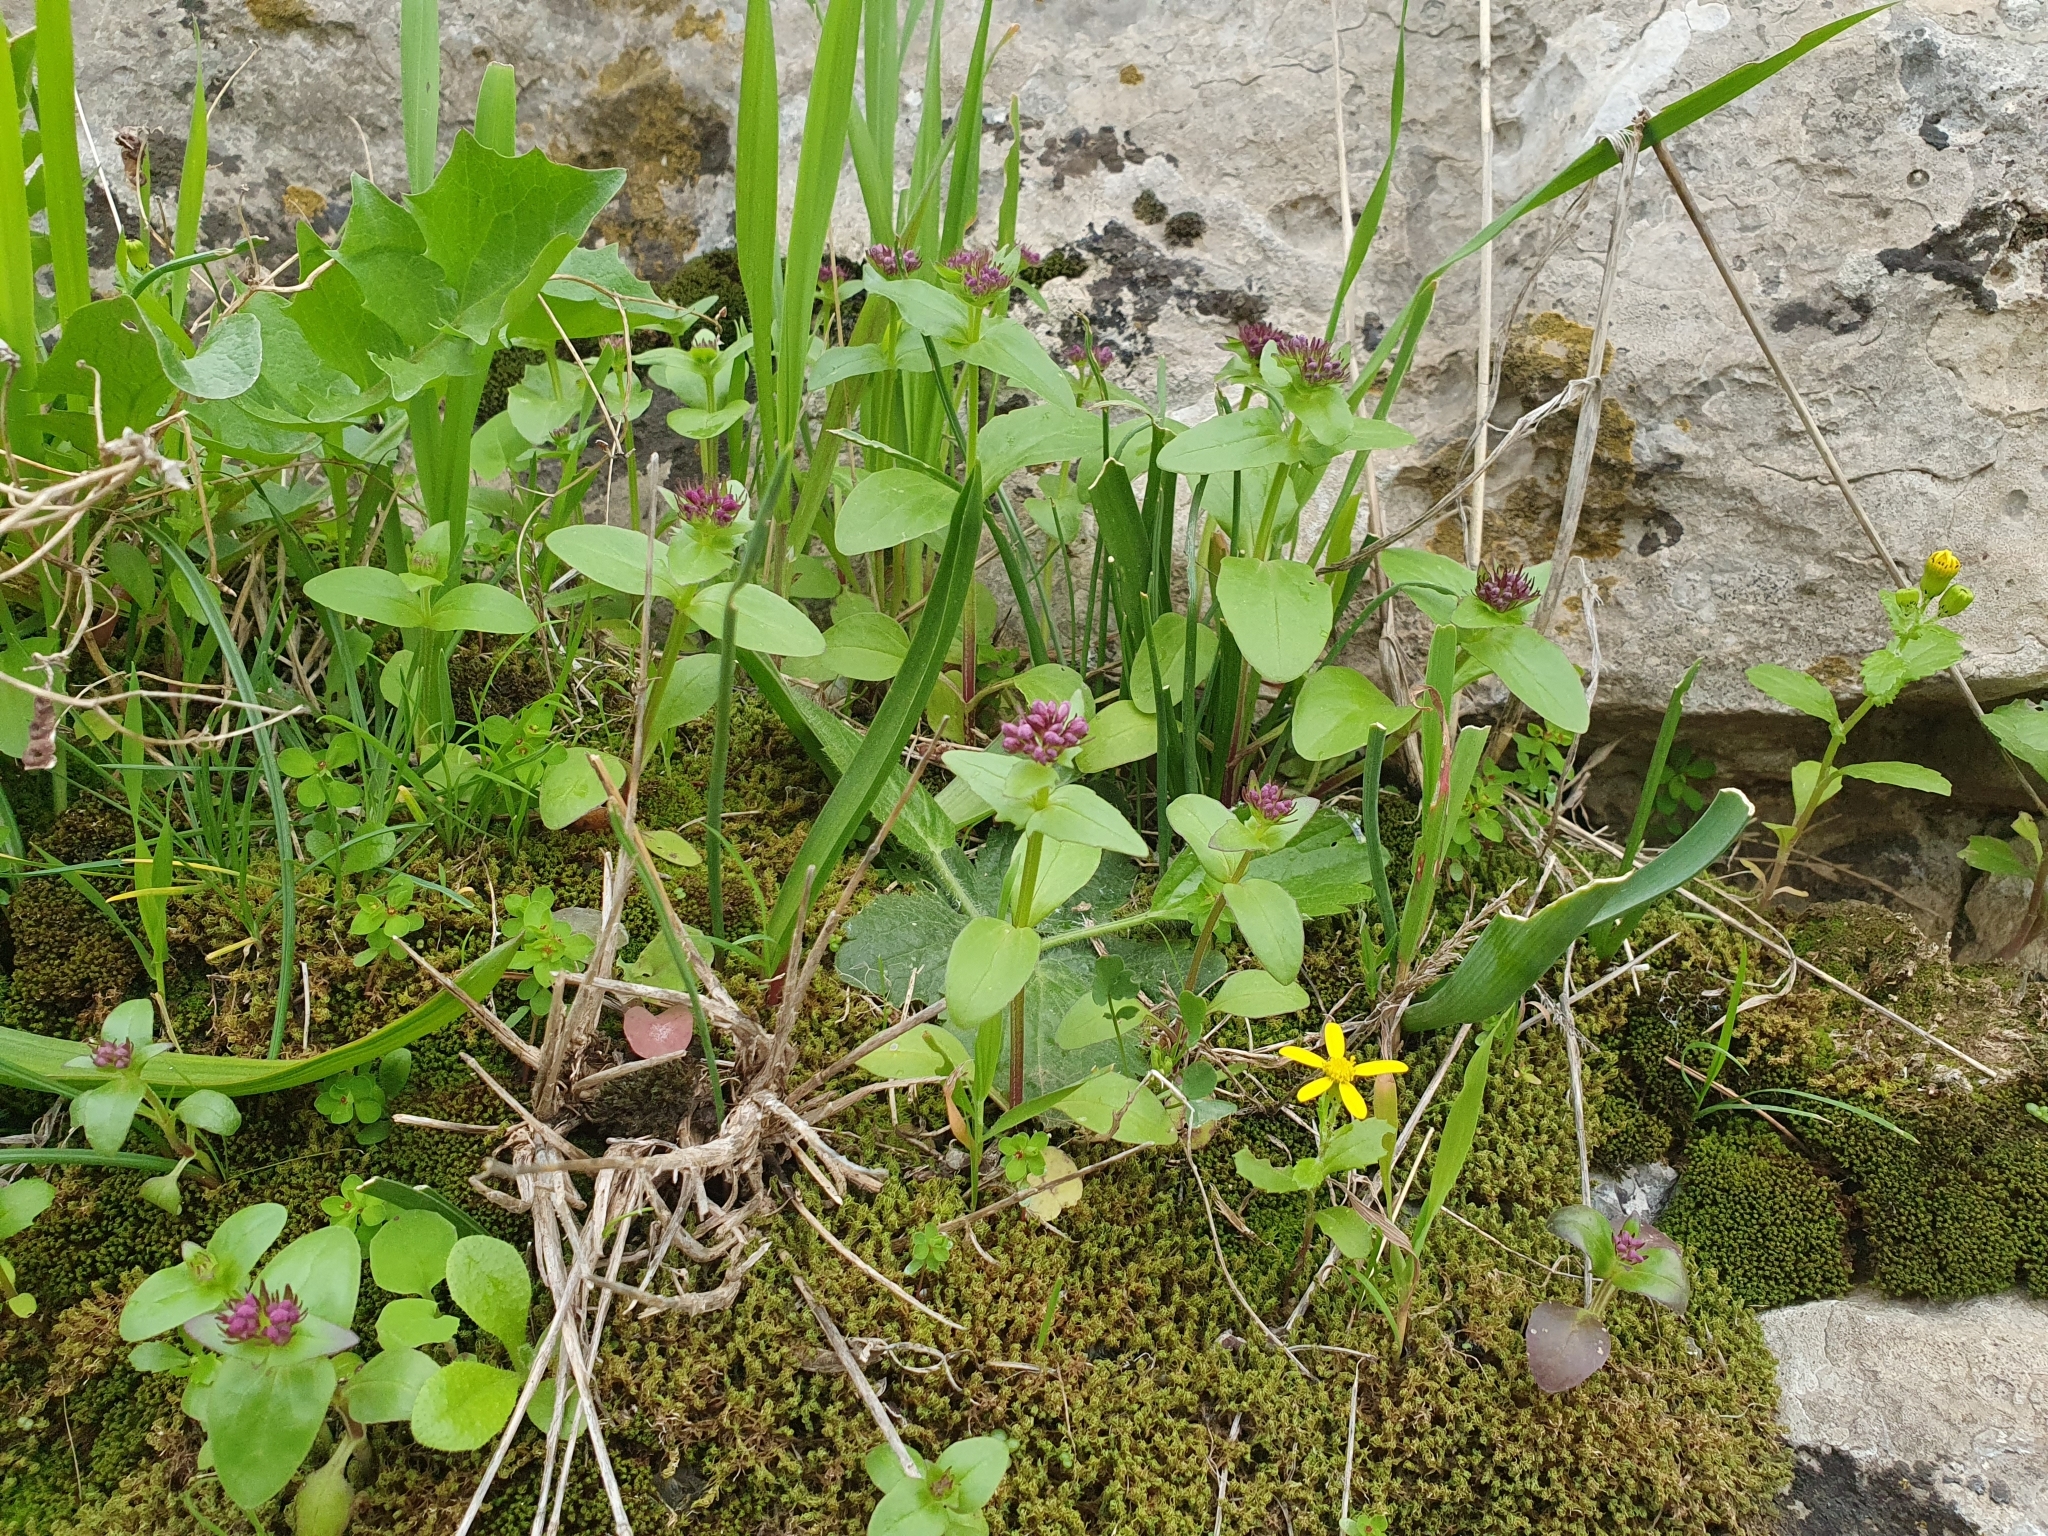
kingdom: Plantae
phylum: Tracheophyta
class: Magnoliopsida
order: Dipsacales
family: Caprifoliaceae
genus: Fedia
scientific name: Fedia graciliflora
